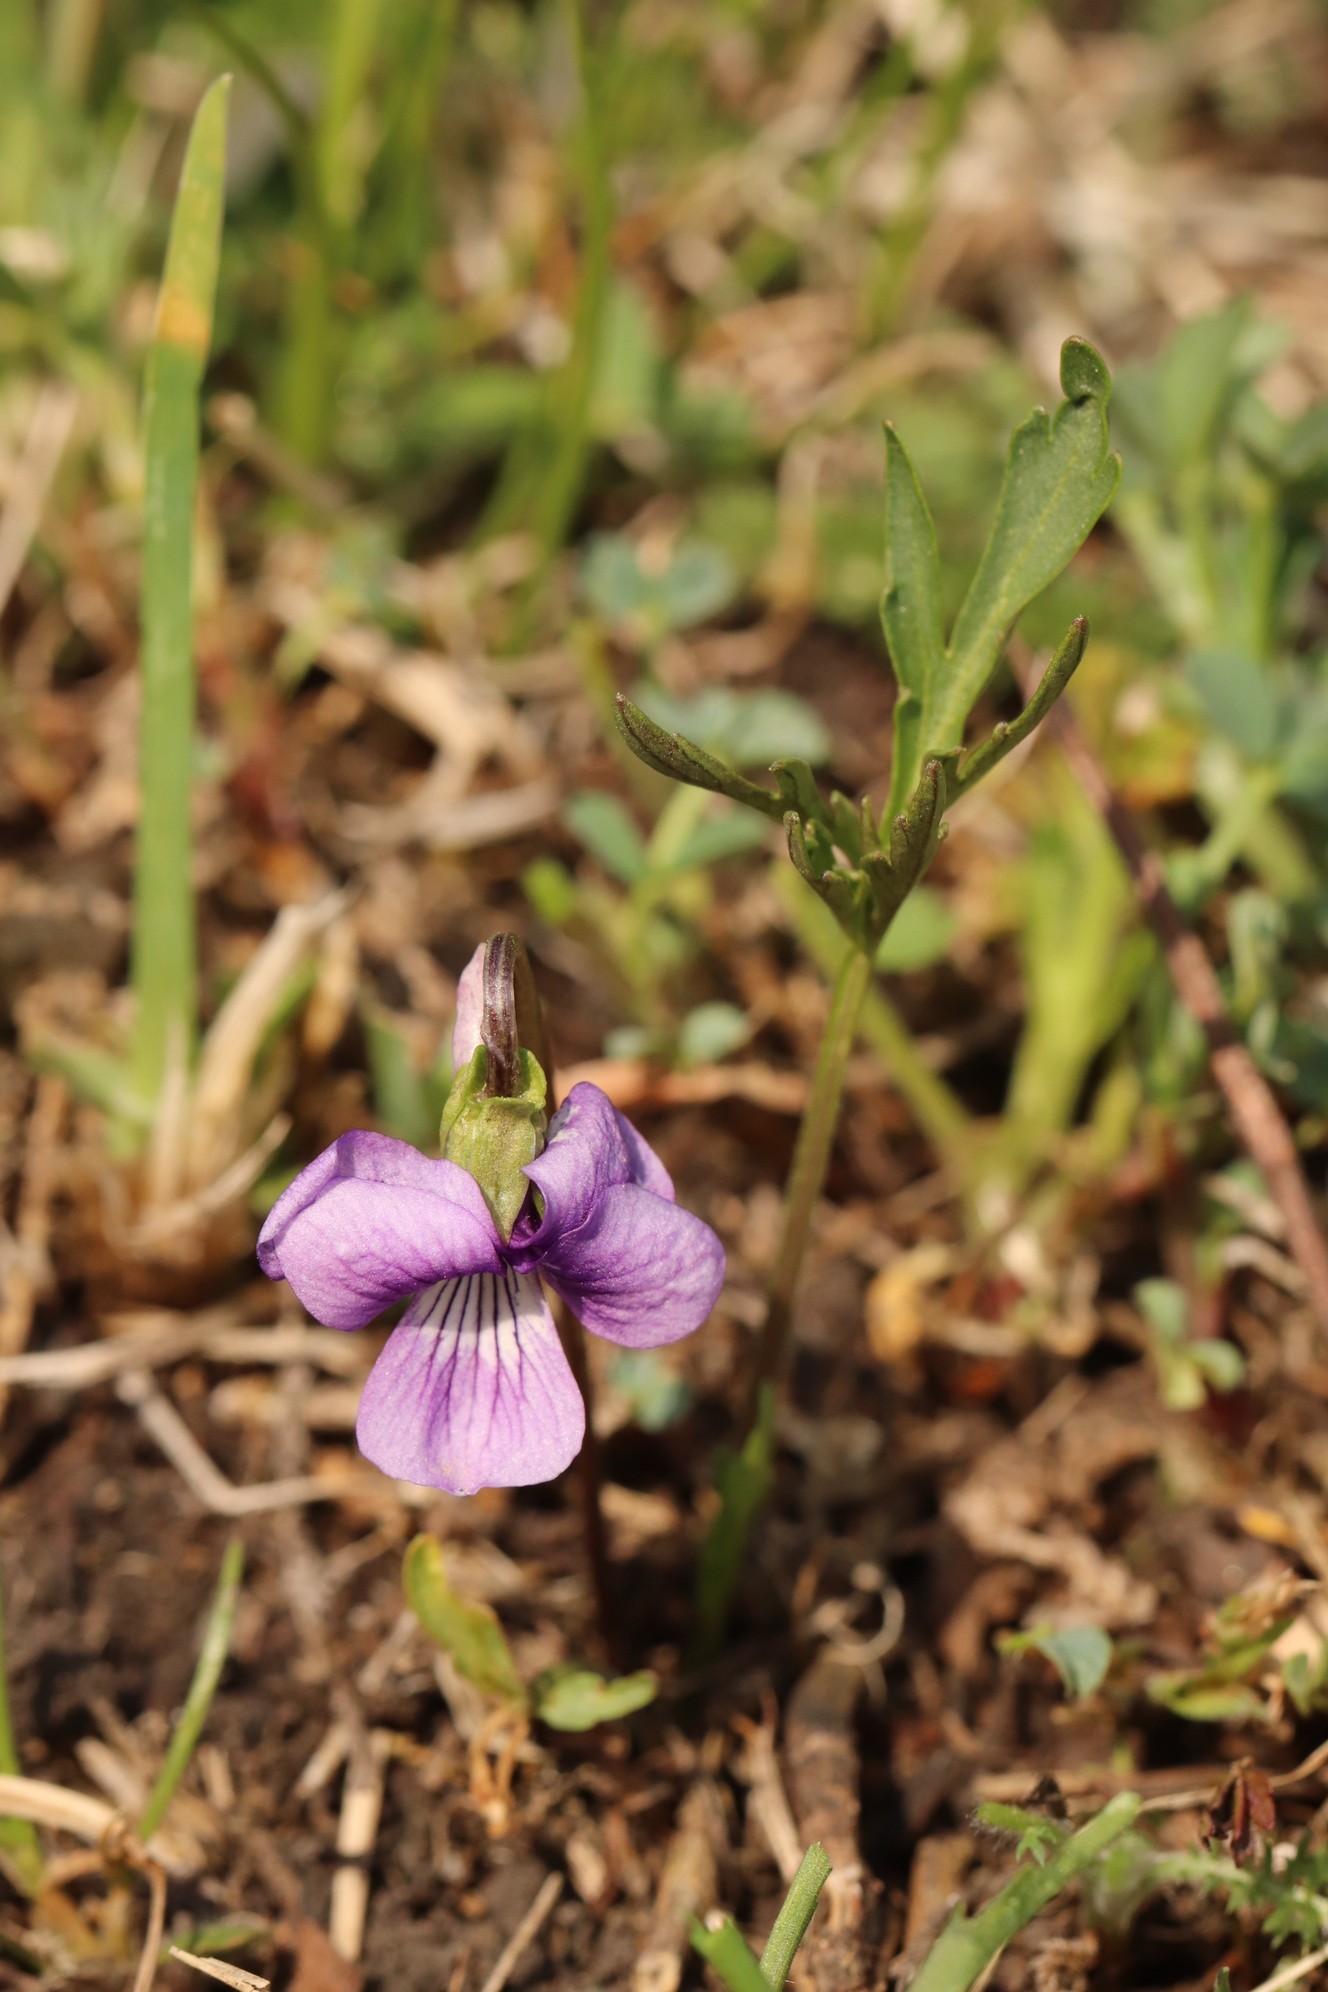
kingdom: Plantae
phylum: Tracheophyta
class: Magnoliopsida
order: Malpighiales
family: Violaceae
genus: Viola
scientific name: Viola multifida
